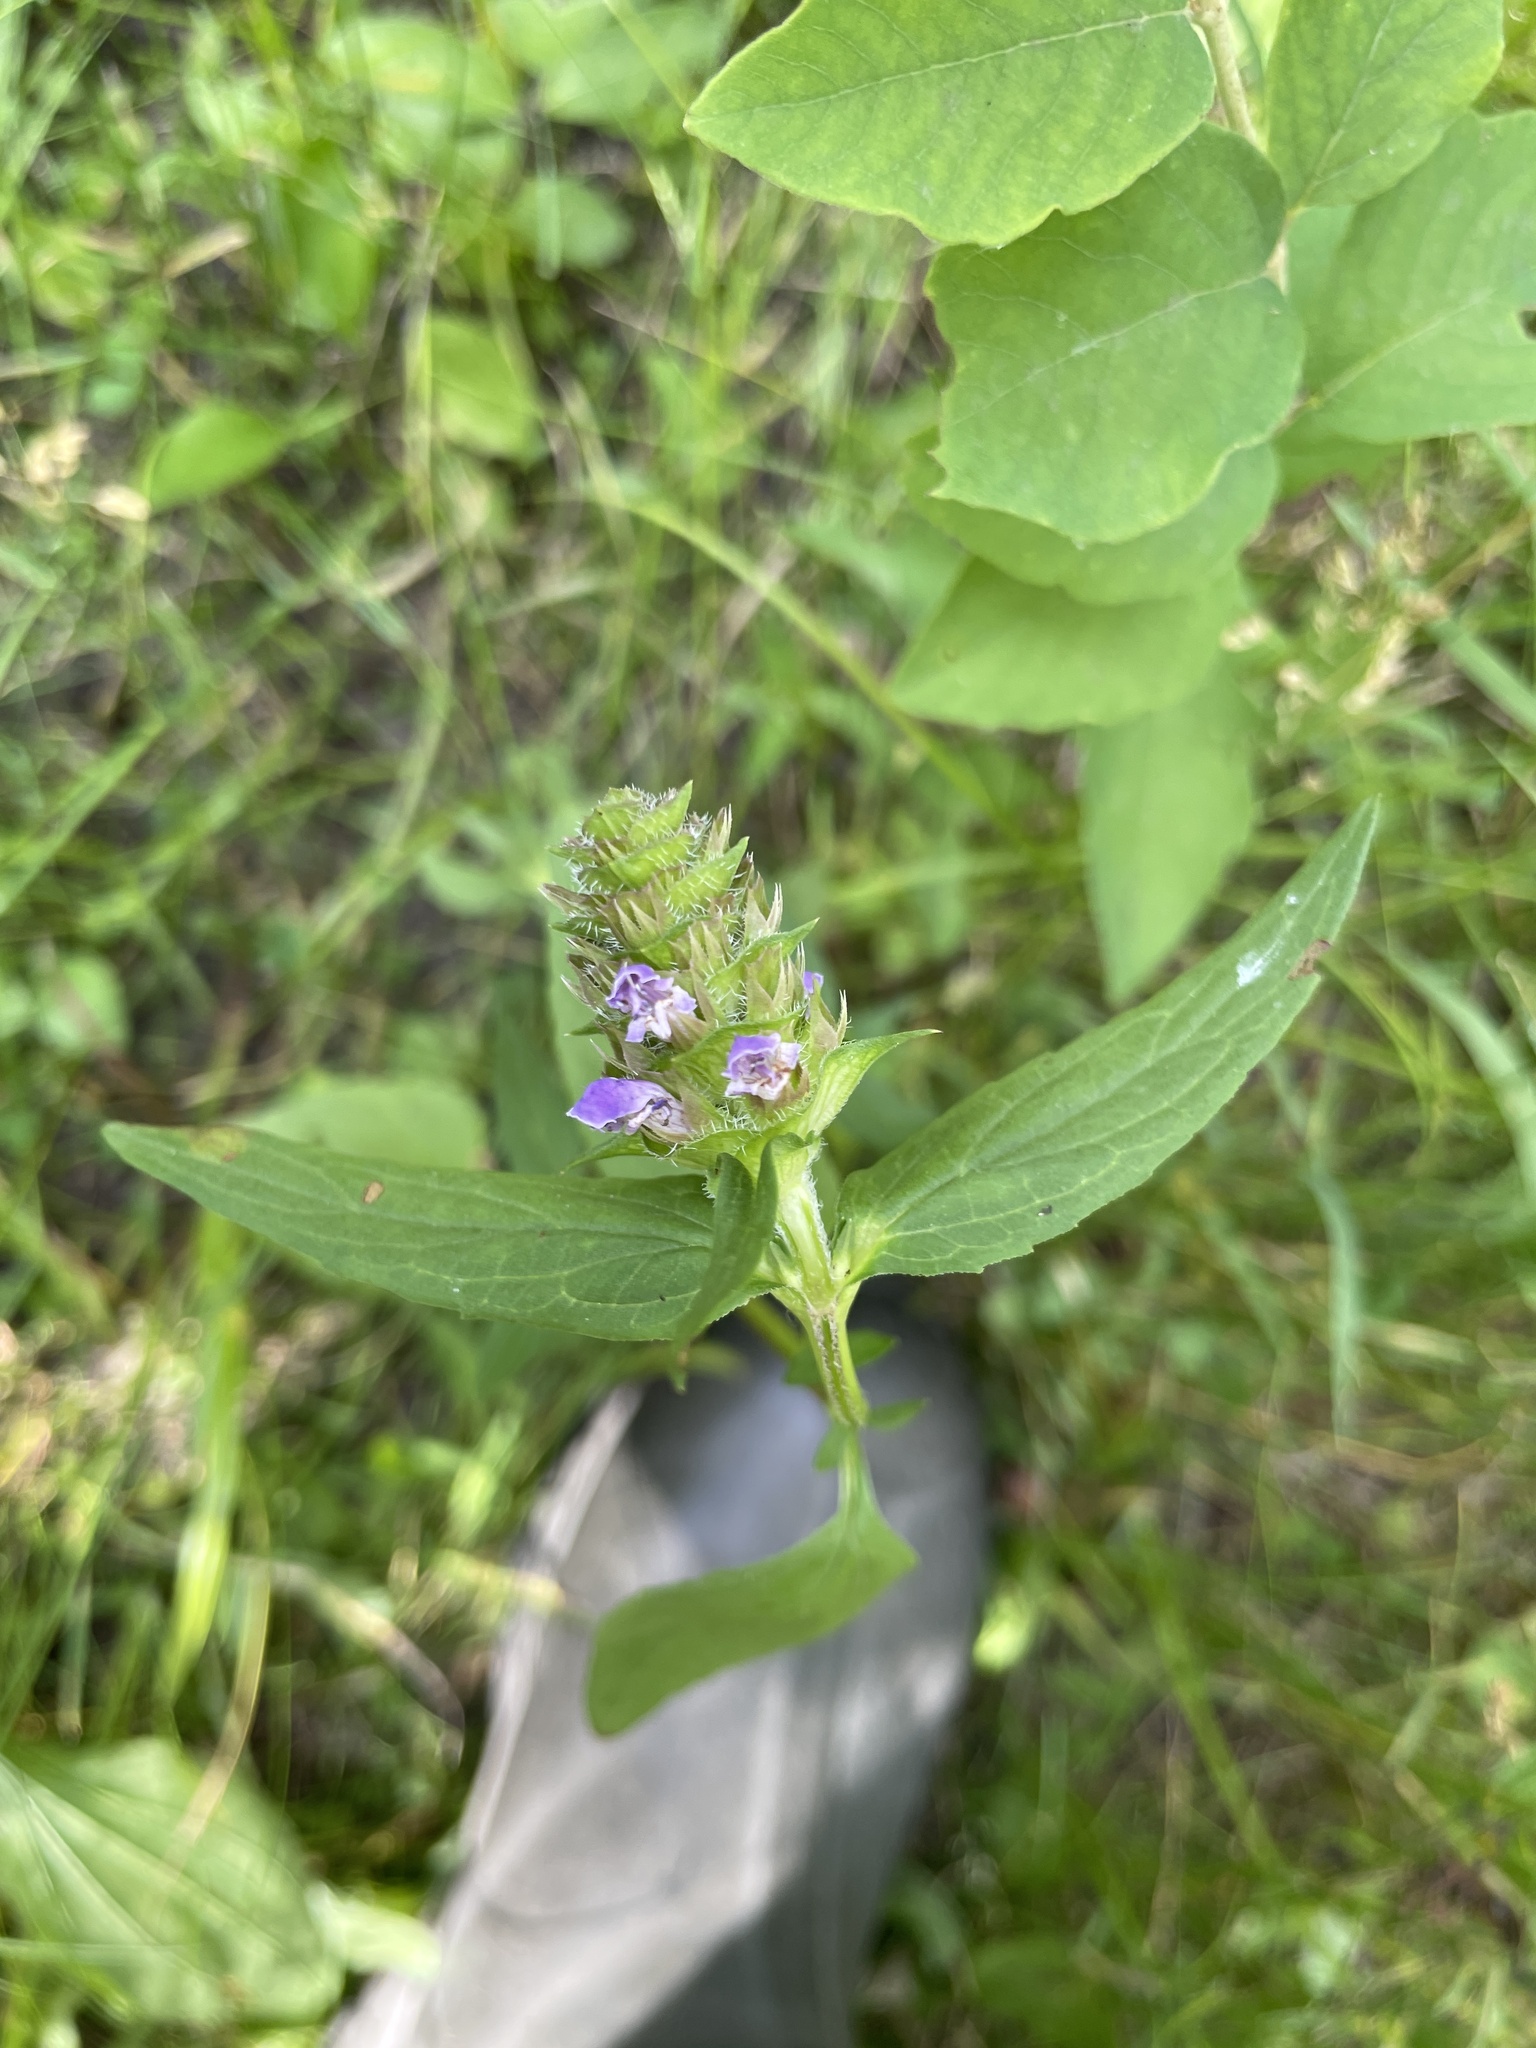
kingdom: Plantae
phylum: Tracheophyta
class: Magnoliopsida
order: Lamiales
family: Lamiaceae
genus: Prunella
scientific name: Prunella vulgaris
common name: Heal-all
